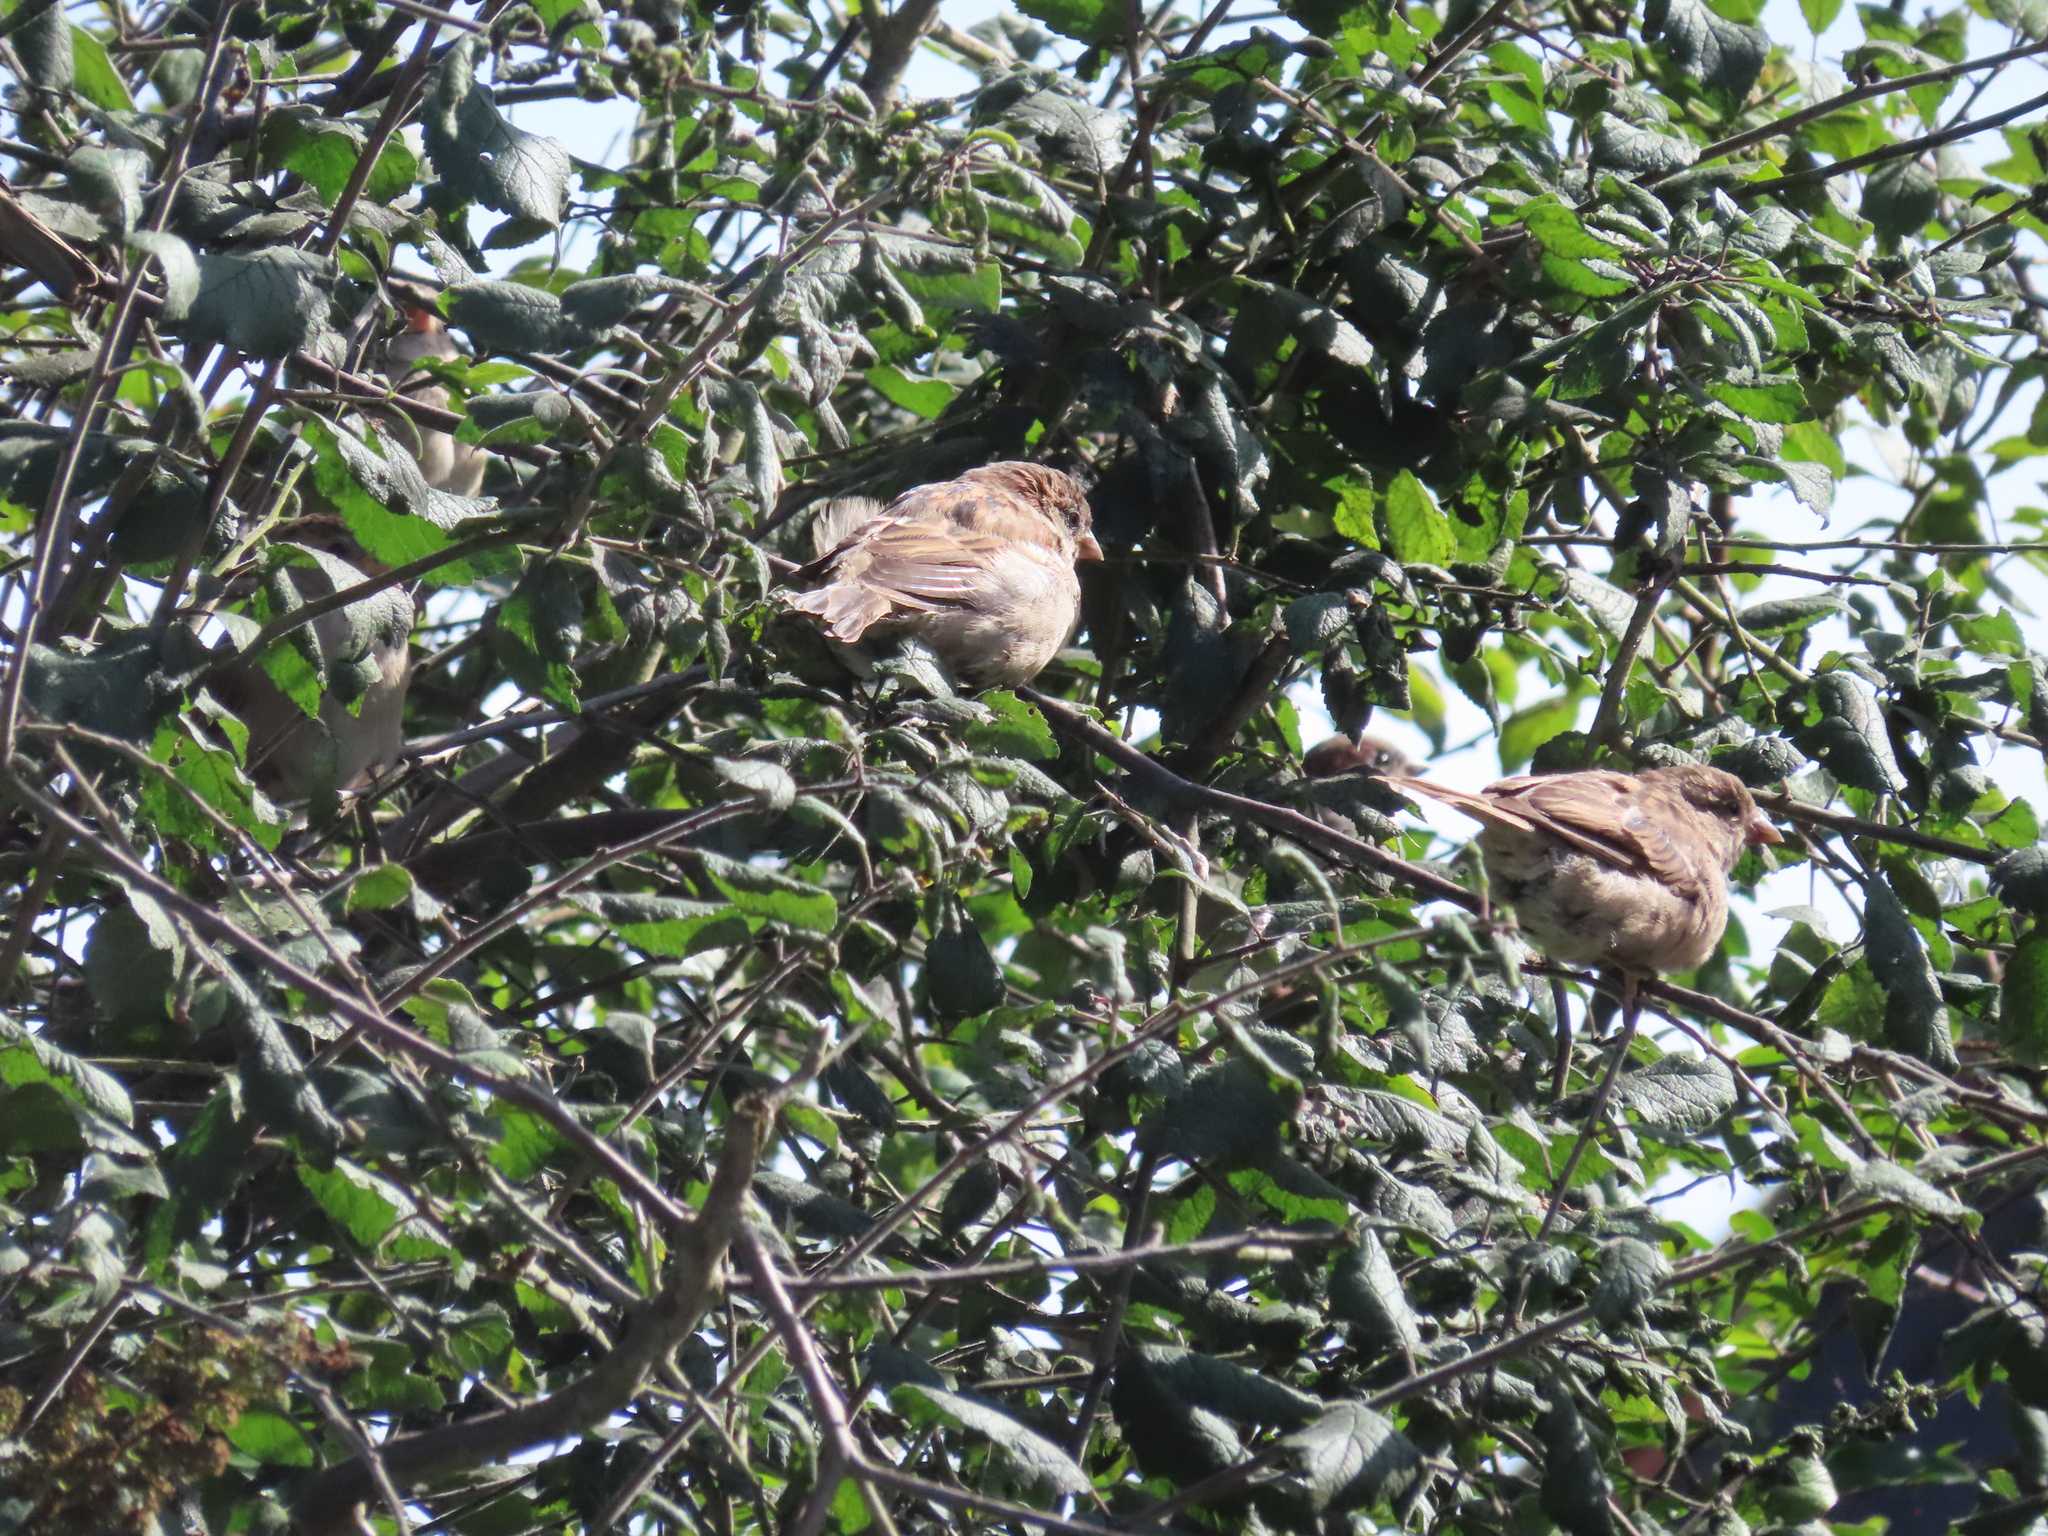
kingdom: Animalia
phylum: Chordata
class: Aves
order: Passeriformes
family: Passeridae
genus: Passer
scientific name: Passer domesticus
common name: House sparrow
